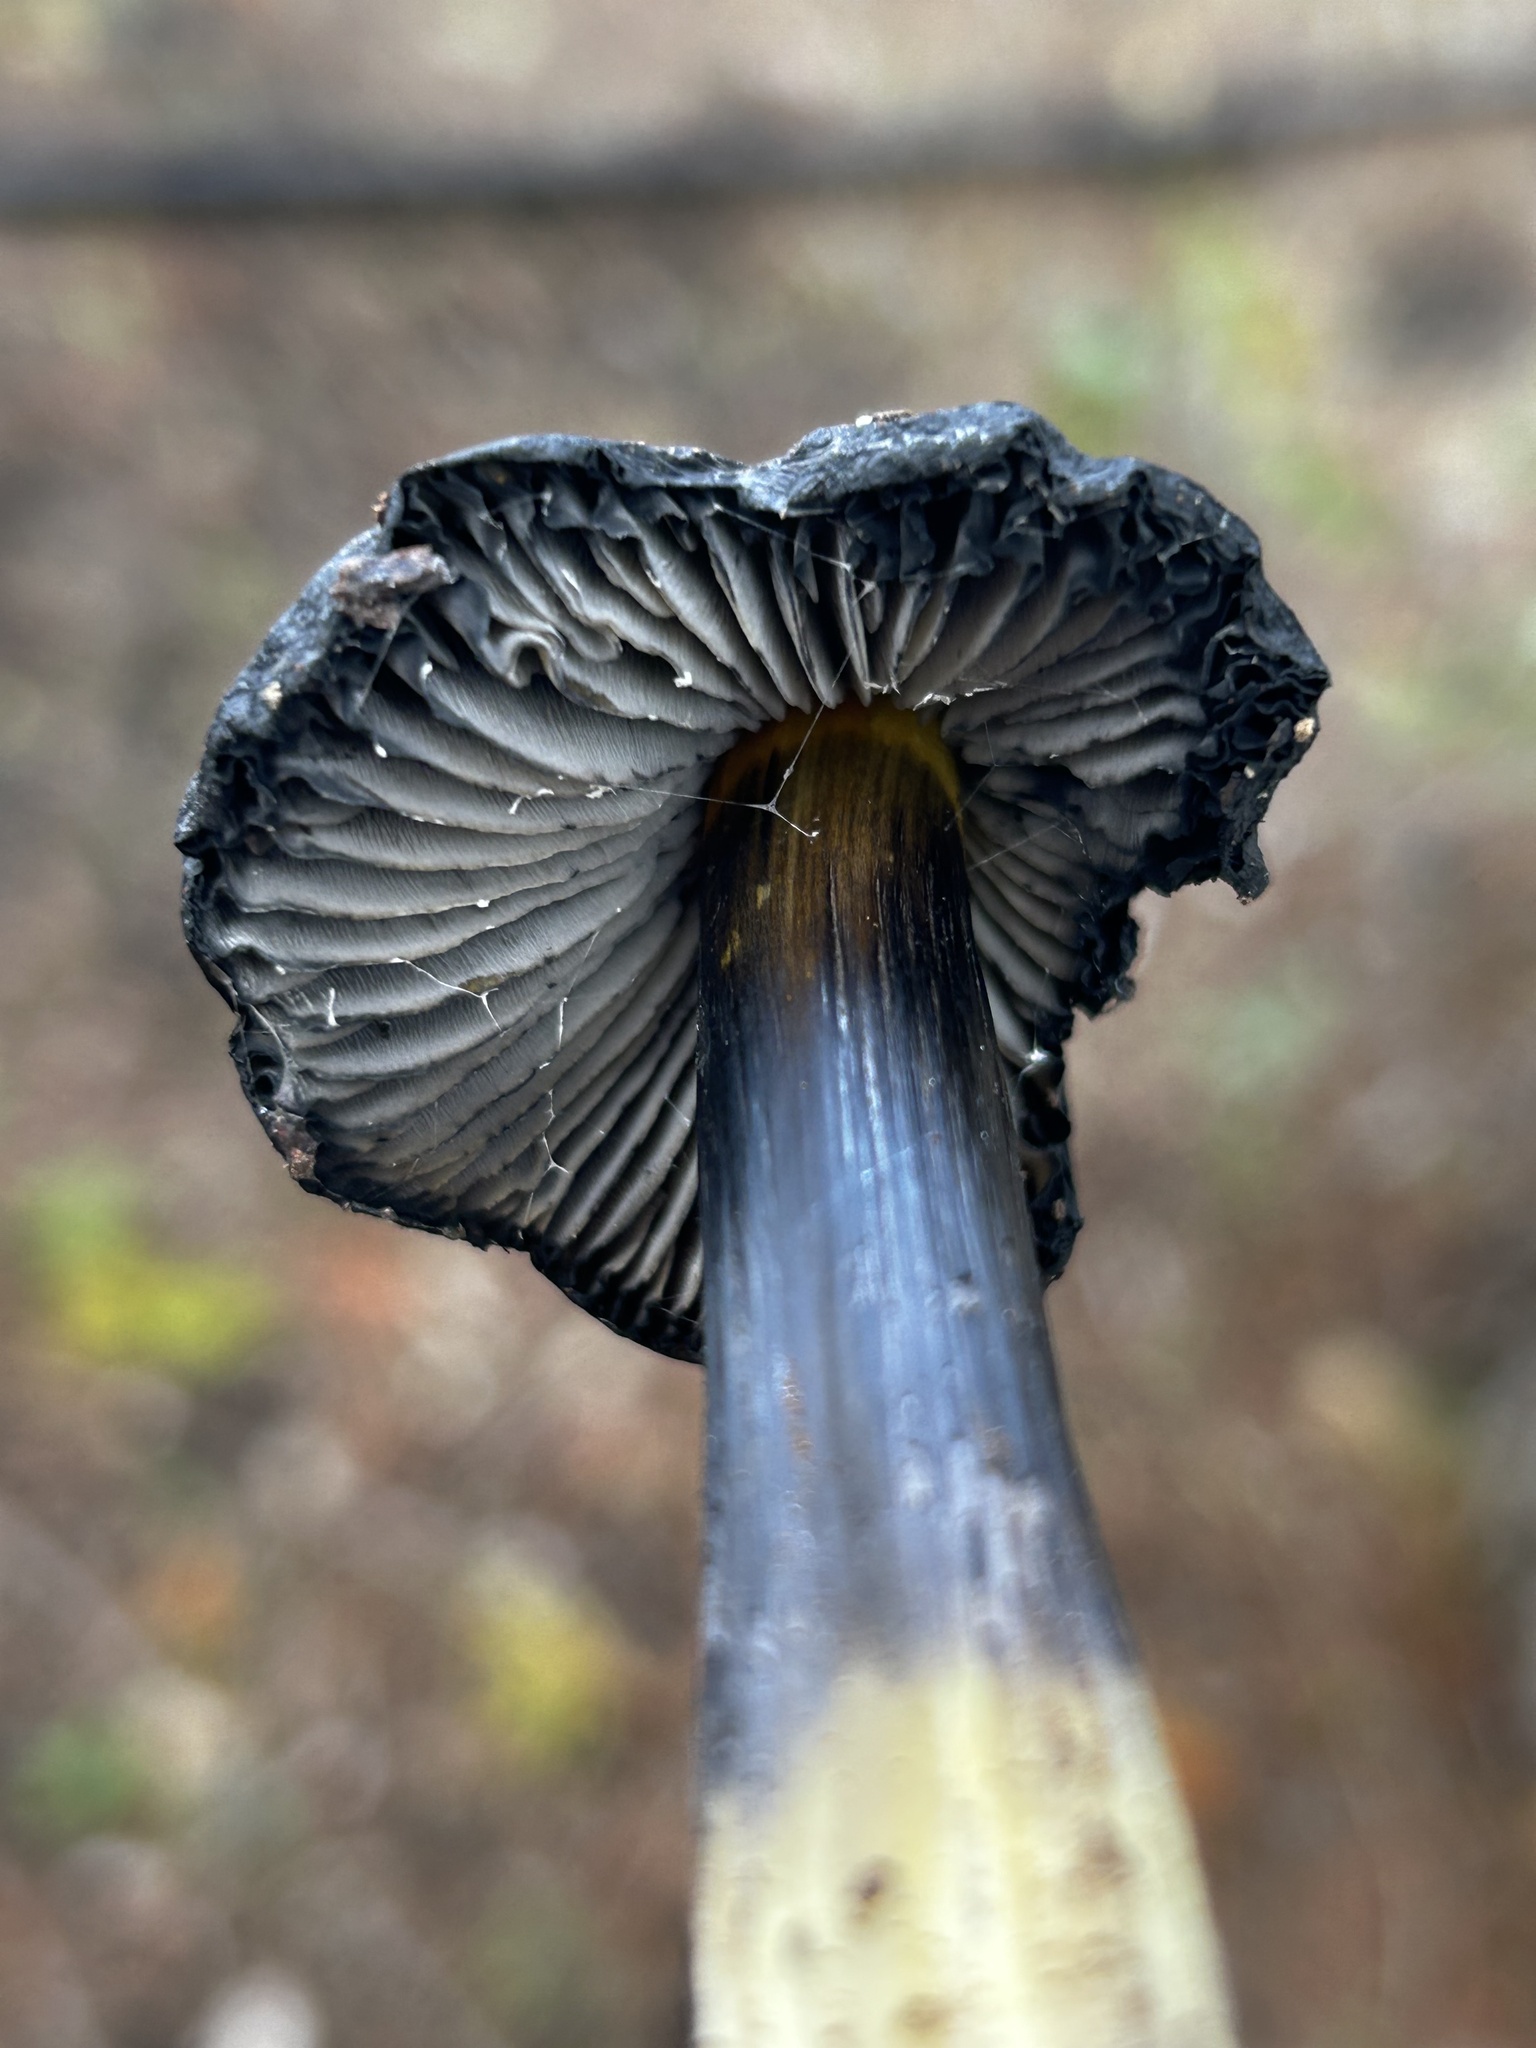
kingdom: Fungi
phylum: Basidiomycota
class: Agaricomycetes
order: Agaricales
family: Hygrophoraceae
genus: Hygrocybe
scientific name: Hygrocybe singeri
